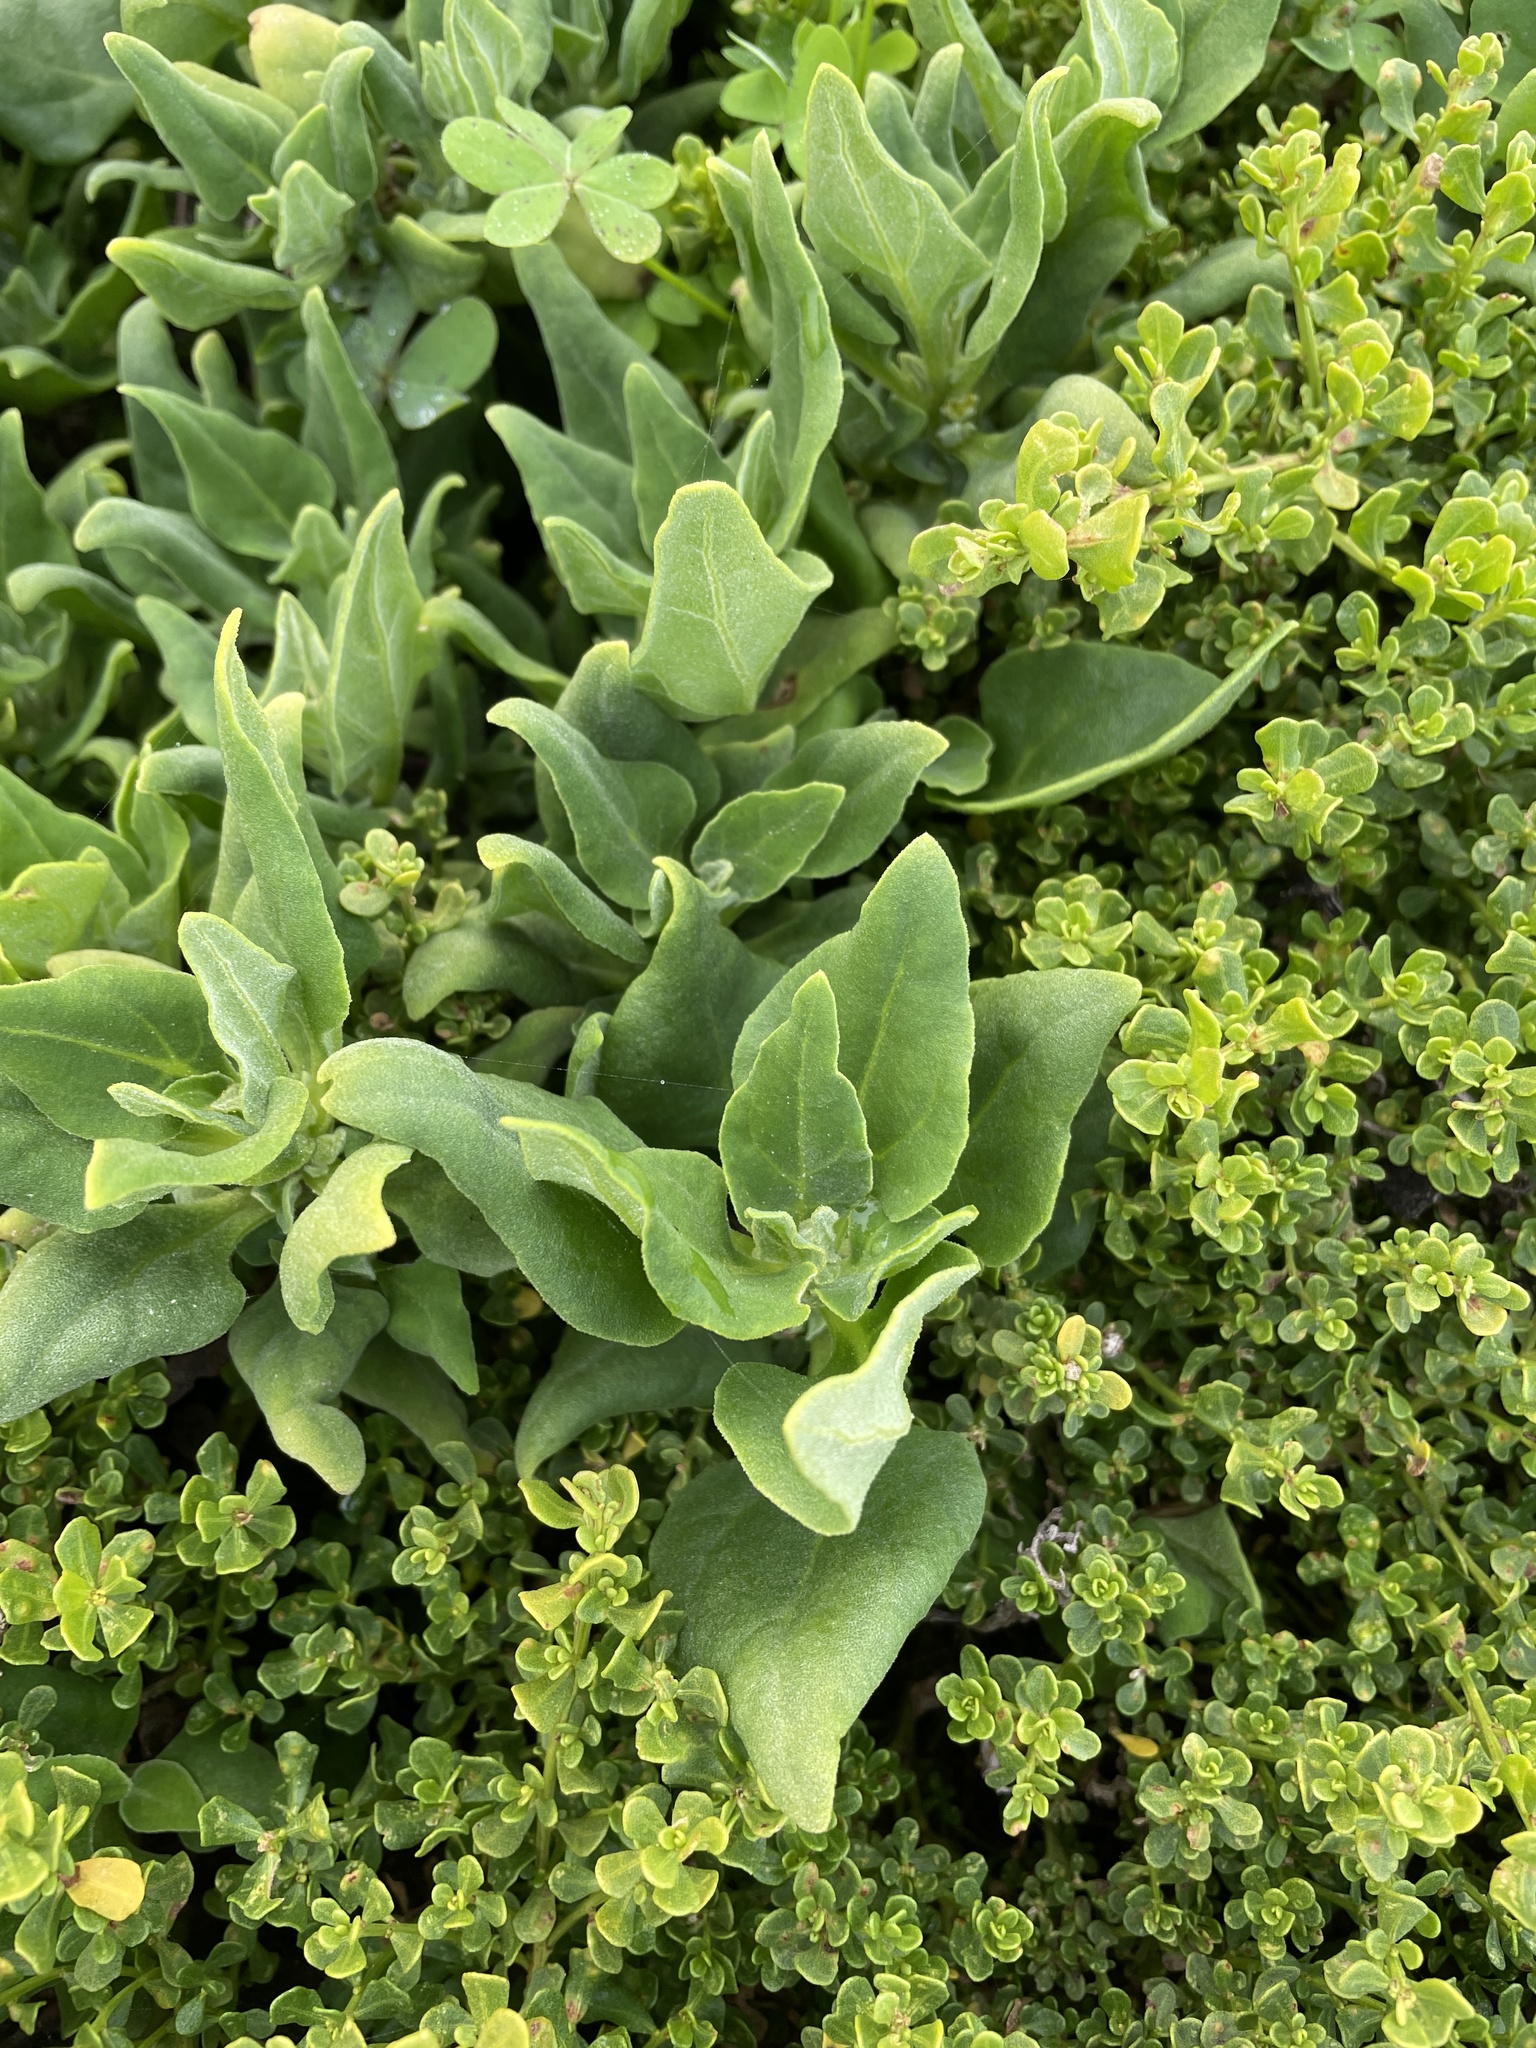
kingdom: Plantae
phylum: Tracheophyta
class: Magnoliopsida
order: Caryophyllales
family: Aizoaceae
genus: Tetragonia
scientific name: Tetragonia tetragonoides
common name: New zealand-spinach
